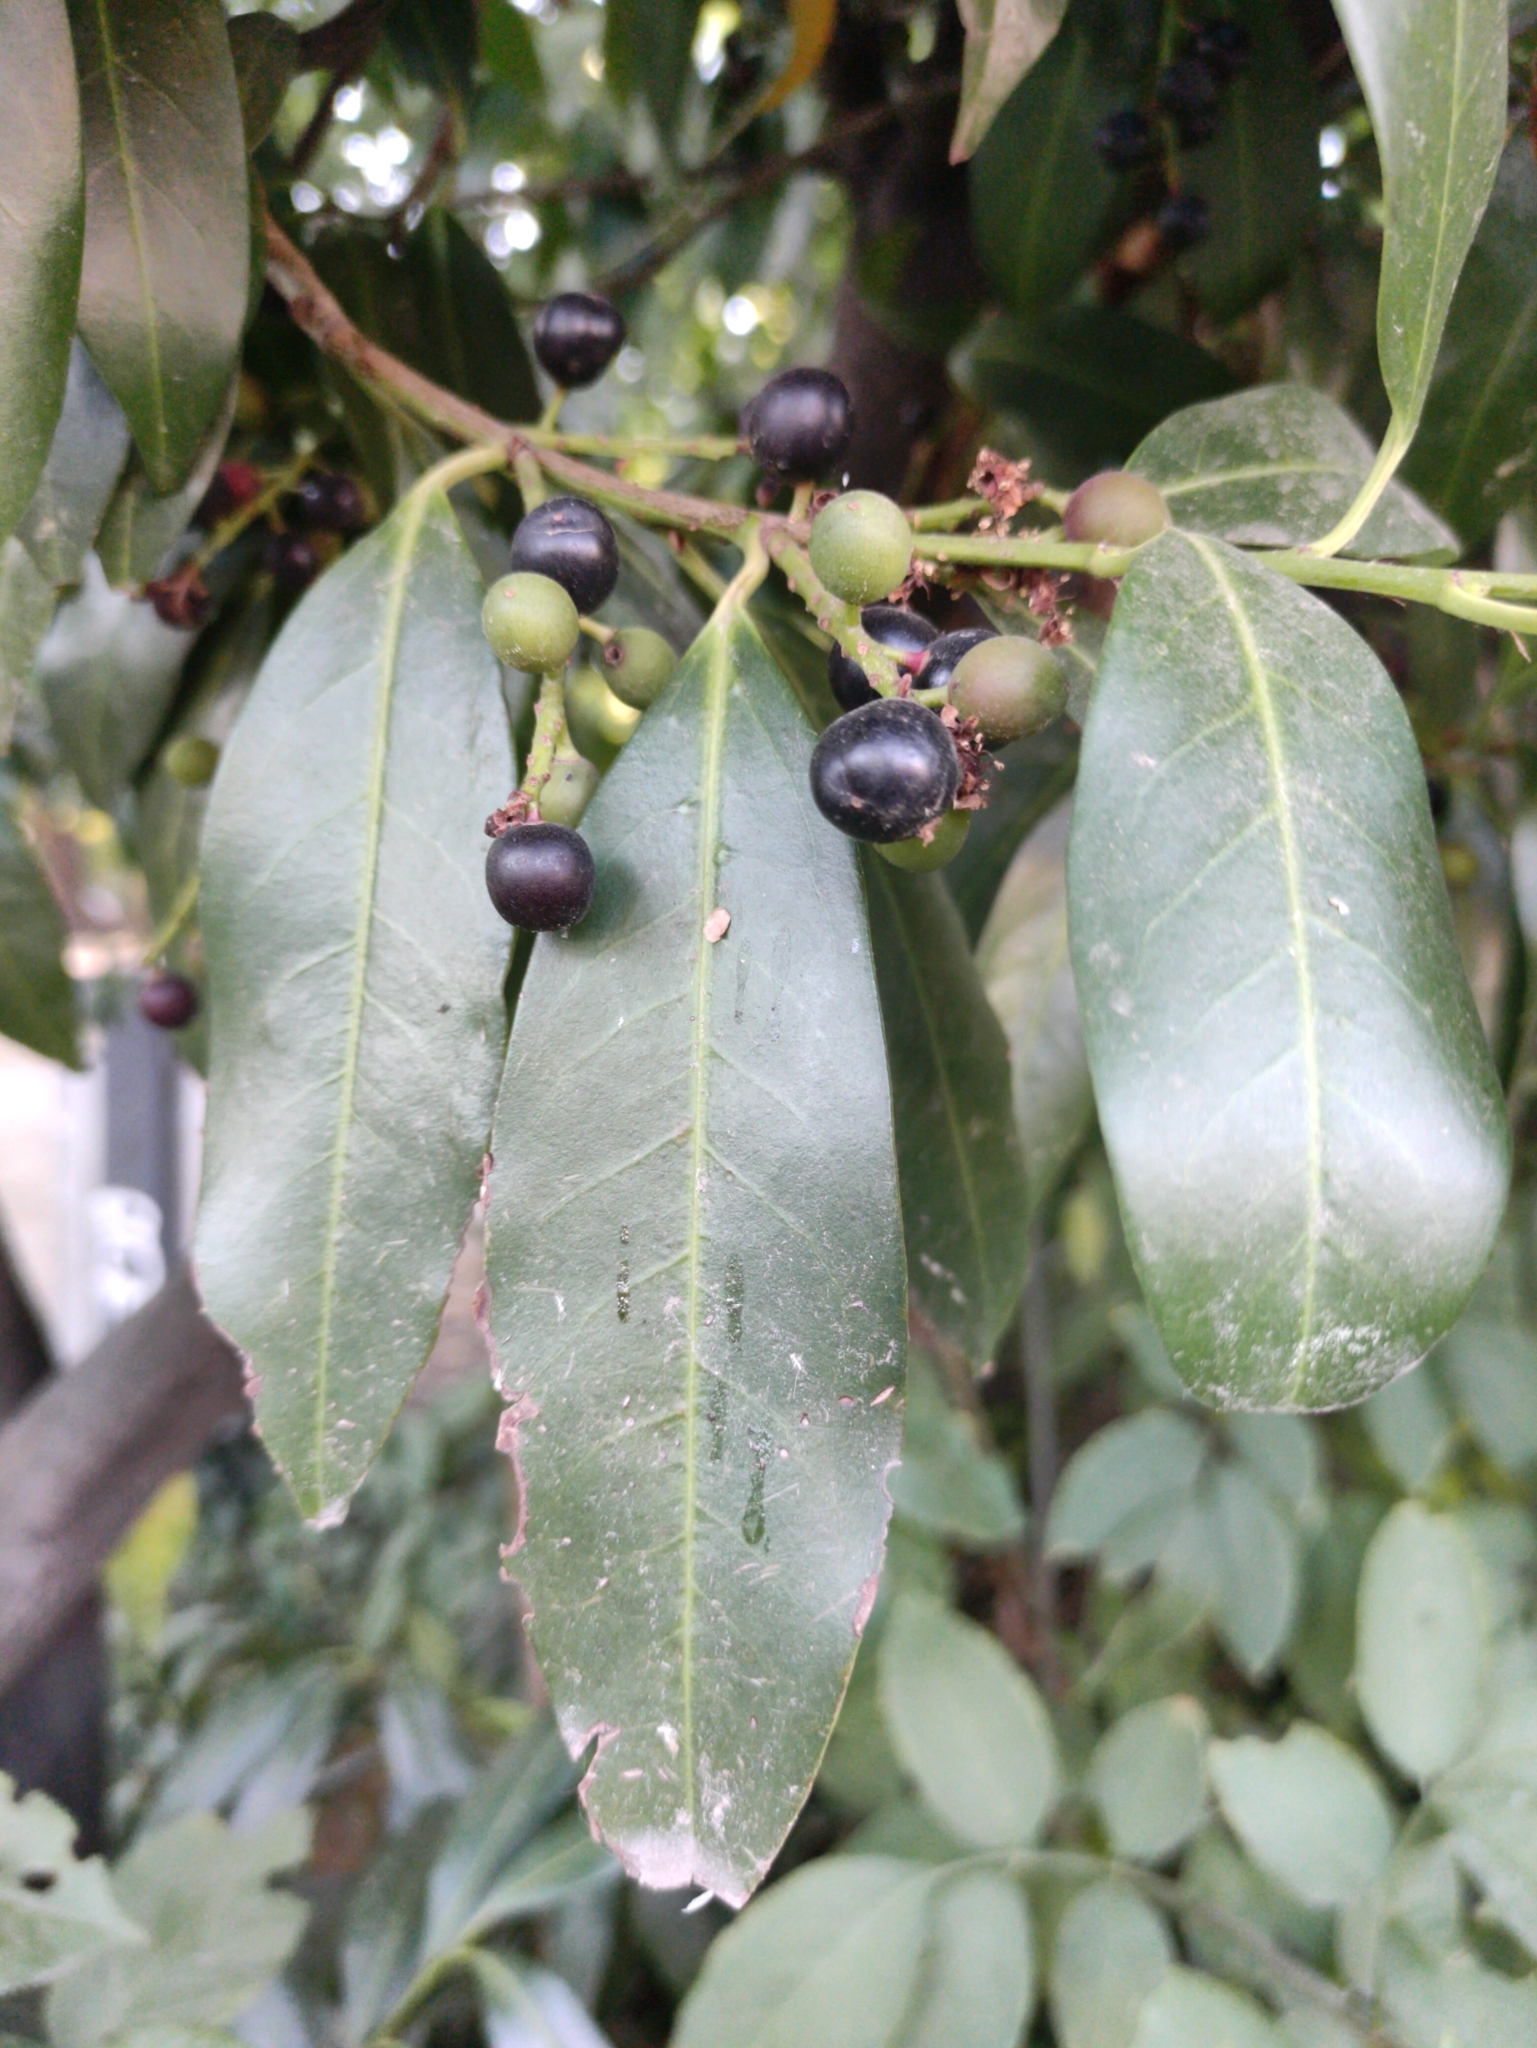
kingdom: Plantae
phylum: Tracheophyta
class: Magnoliopsida
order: Rosales
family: Rosaceae
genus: Prunus
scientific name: Prunus laurocerasus
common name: Cherry laurel
